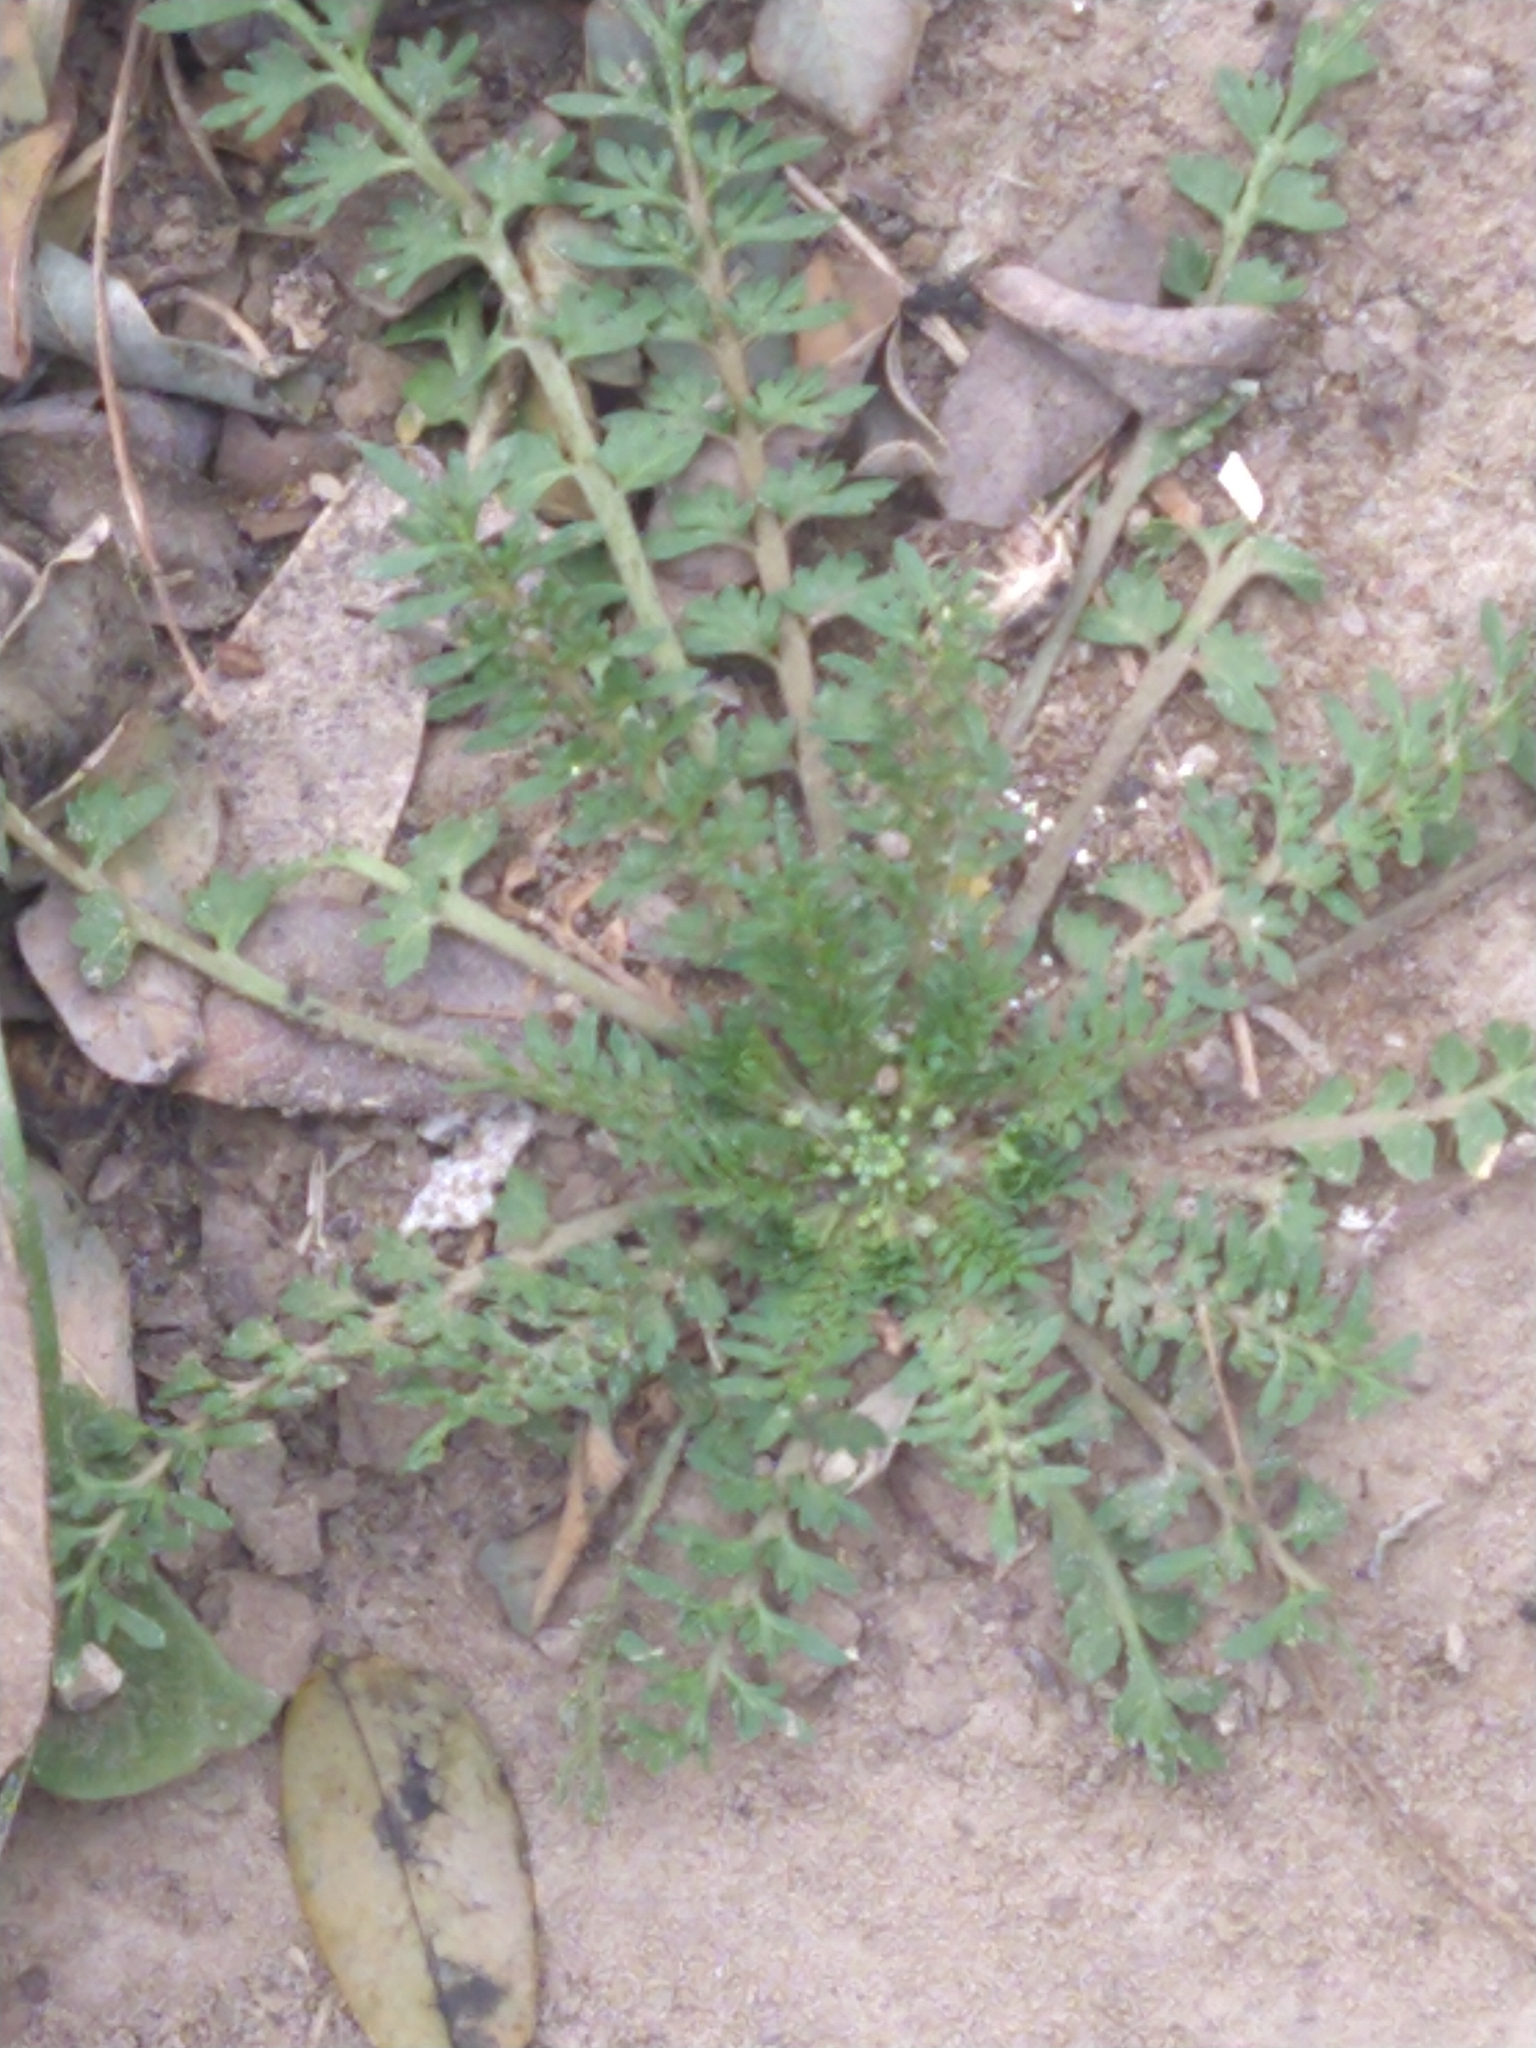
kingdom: Plantae
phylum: Tracheophyta
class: Magnoliopsida
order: Brassicales
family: Brassicaceae
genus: Lepidium
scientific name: Lepidium didymum
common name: Lesser swinecress
